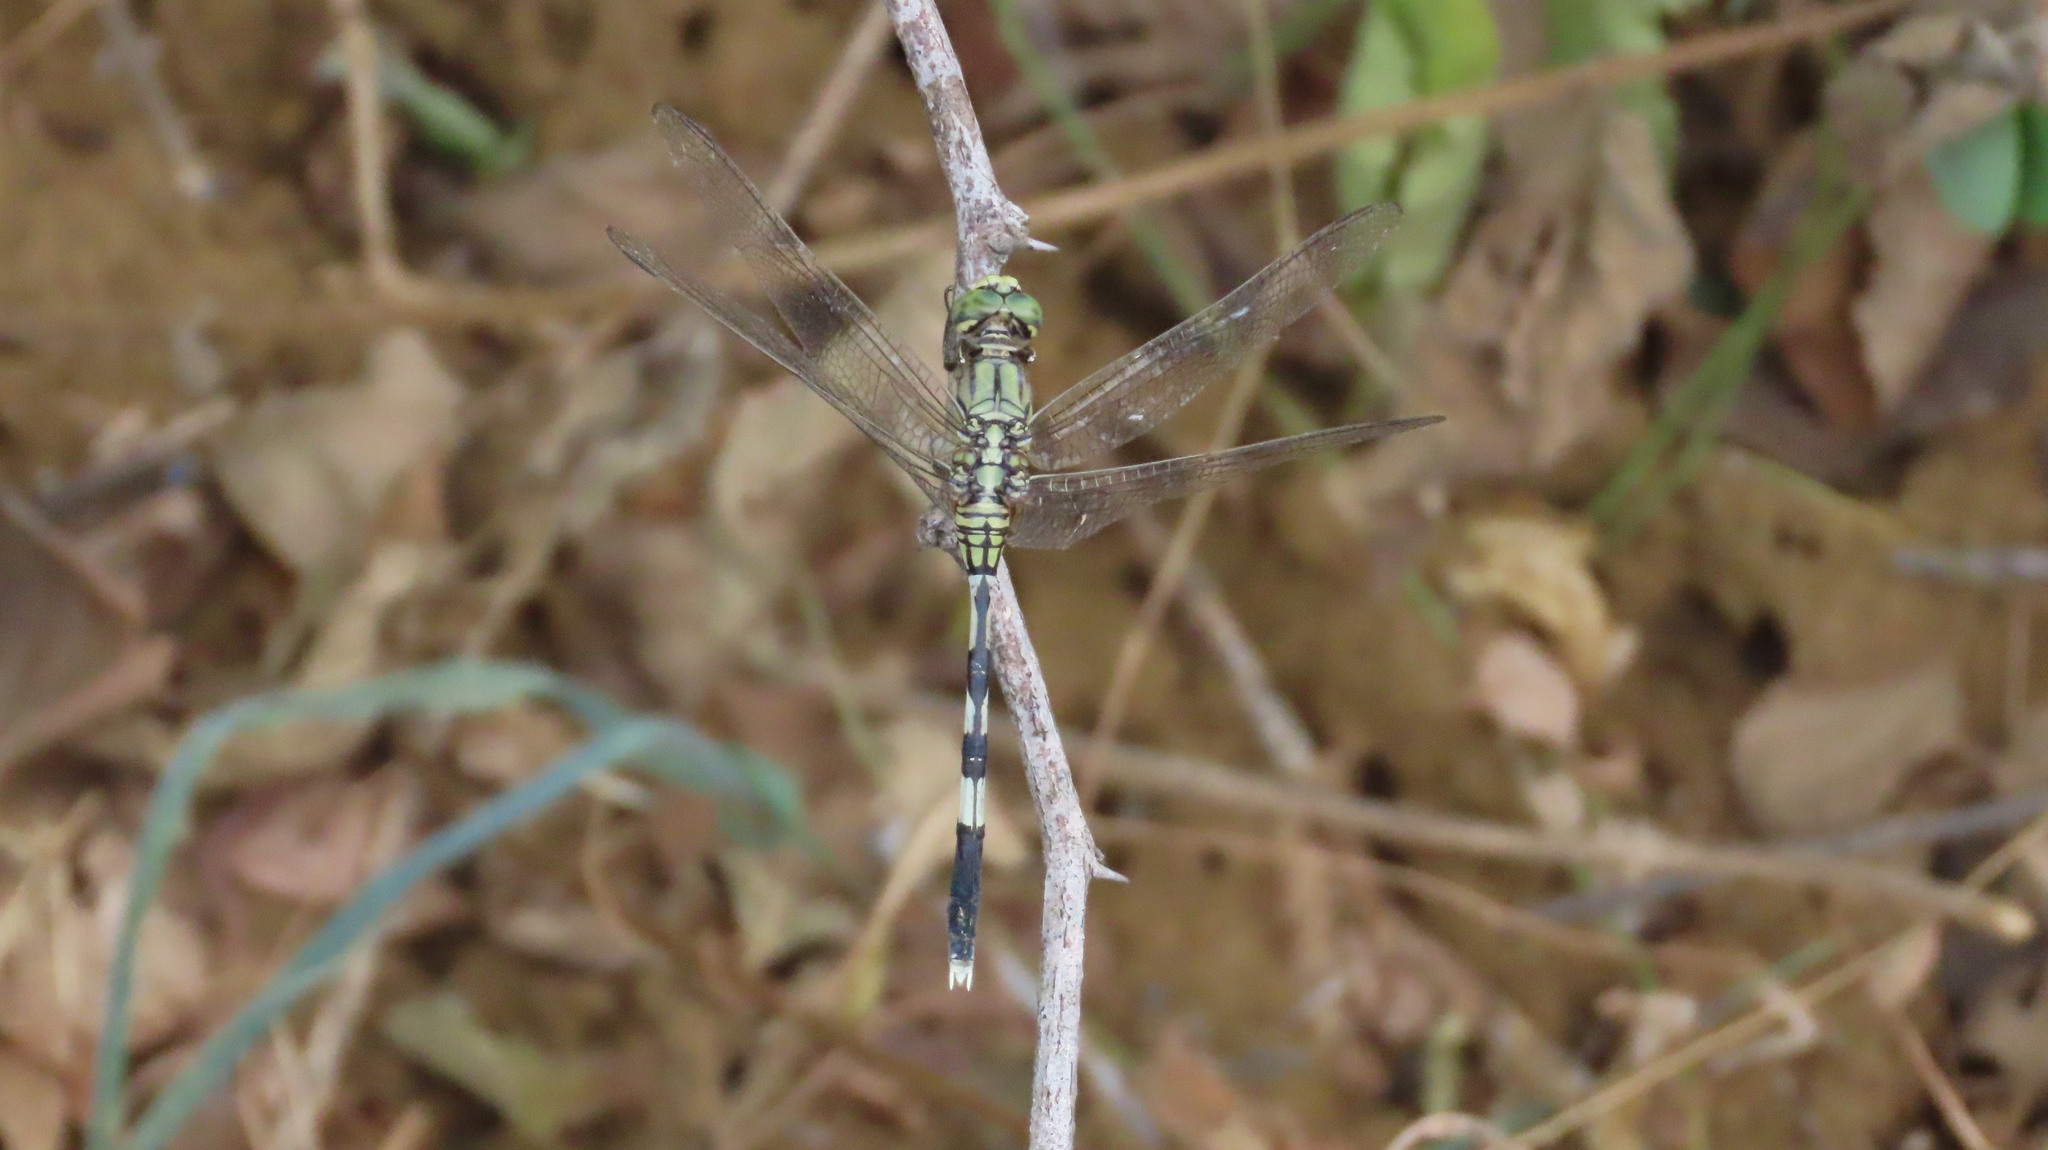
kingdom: Animalia
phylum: Arthropoda
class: Insecta
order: Odonata
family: Libellulidae
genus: Orthetrum
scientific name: Orthetrum sabina
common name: Slender skimmer
